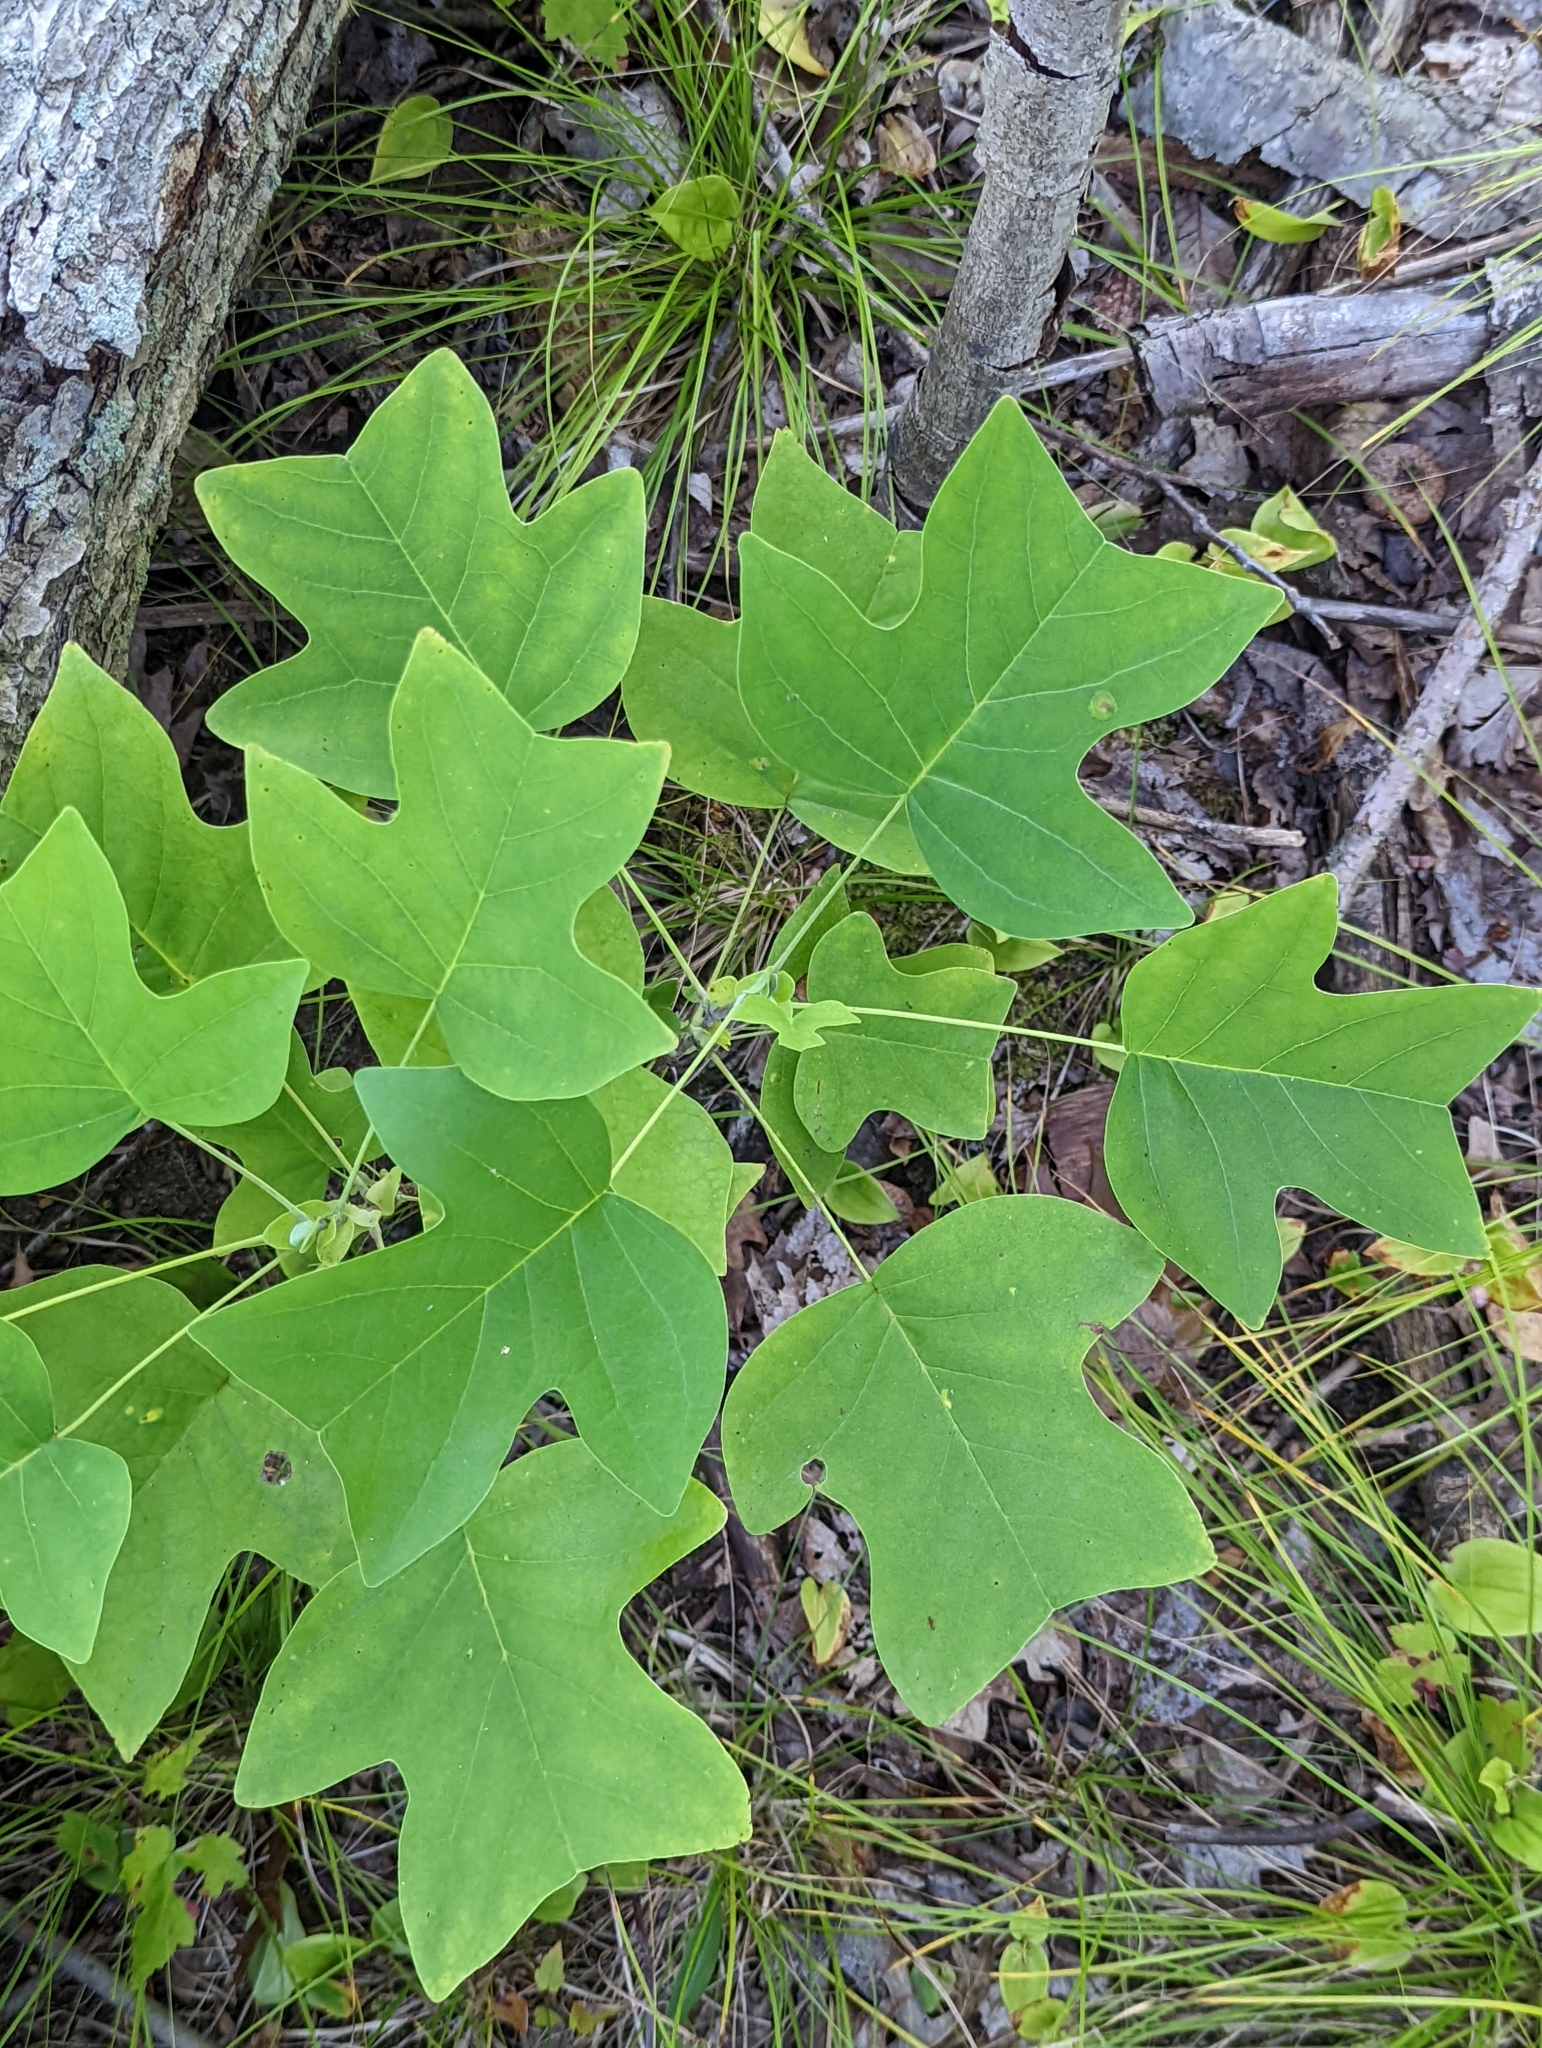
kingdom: Plantae
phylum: Tracheophyta
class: Magnoliopsida
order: Magnoliales
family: Magnoliaceae
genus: Liriodendron
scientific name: Liriodendron tulipifera
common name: Tulip tree
